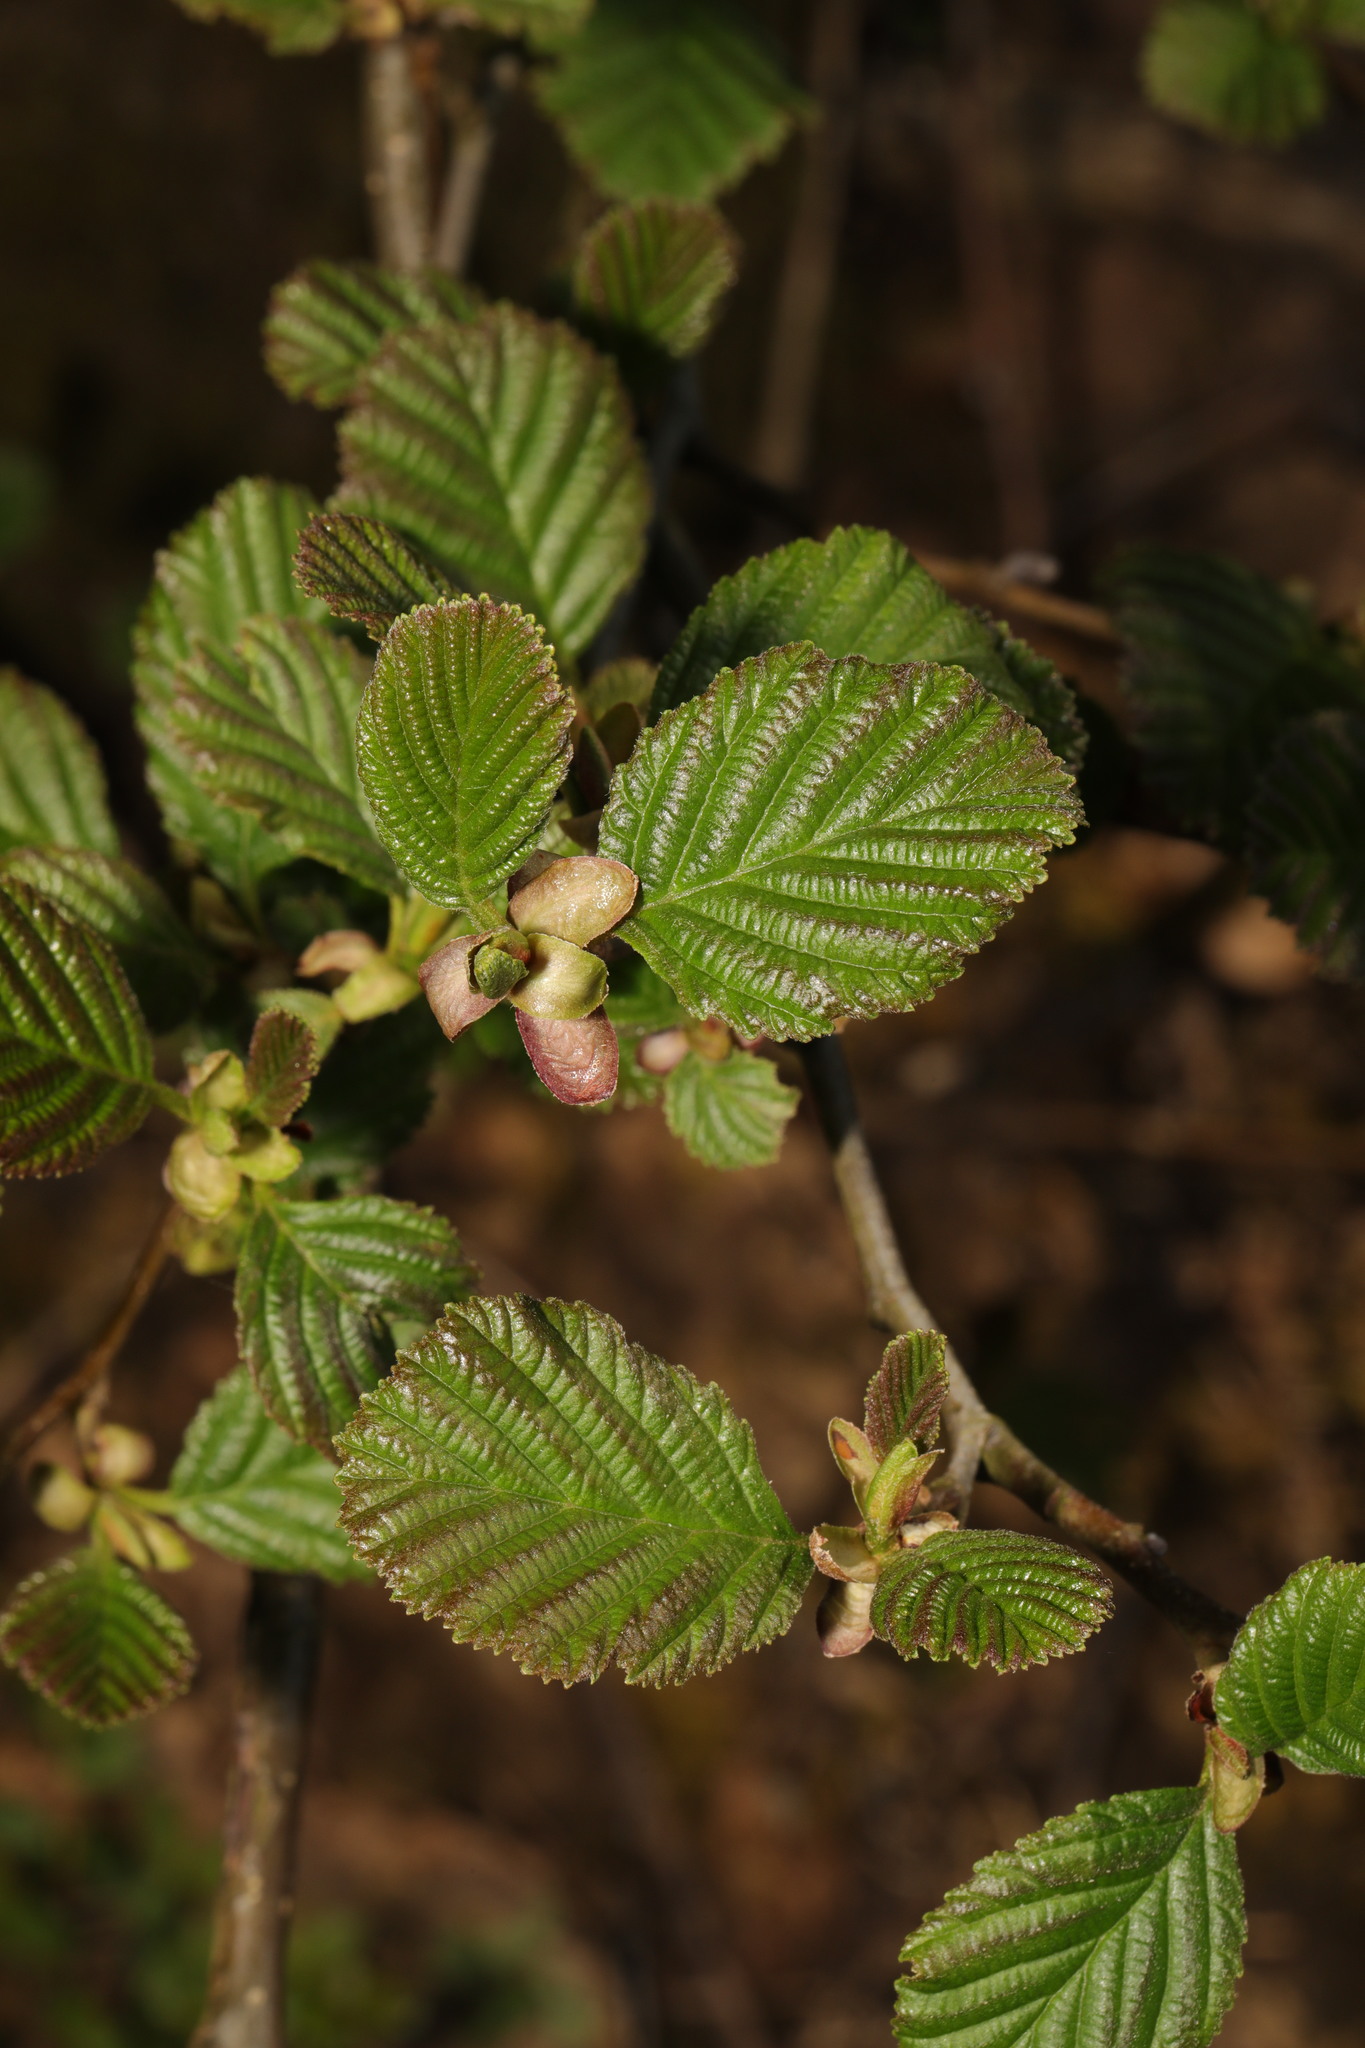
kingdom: Plantae
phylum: Tracheophyta
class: Magnoliopsida
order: Fagales
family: Betulaceae
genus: Alnus
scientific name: Alnus glutinosa
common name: Black alder
